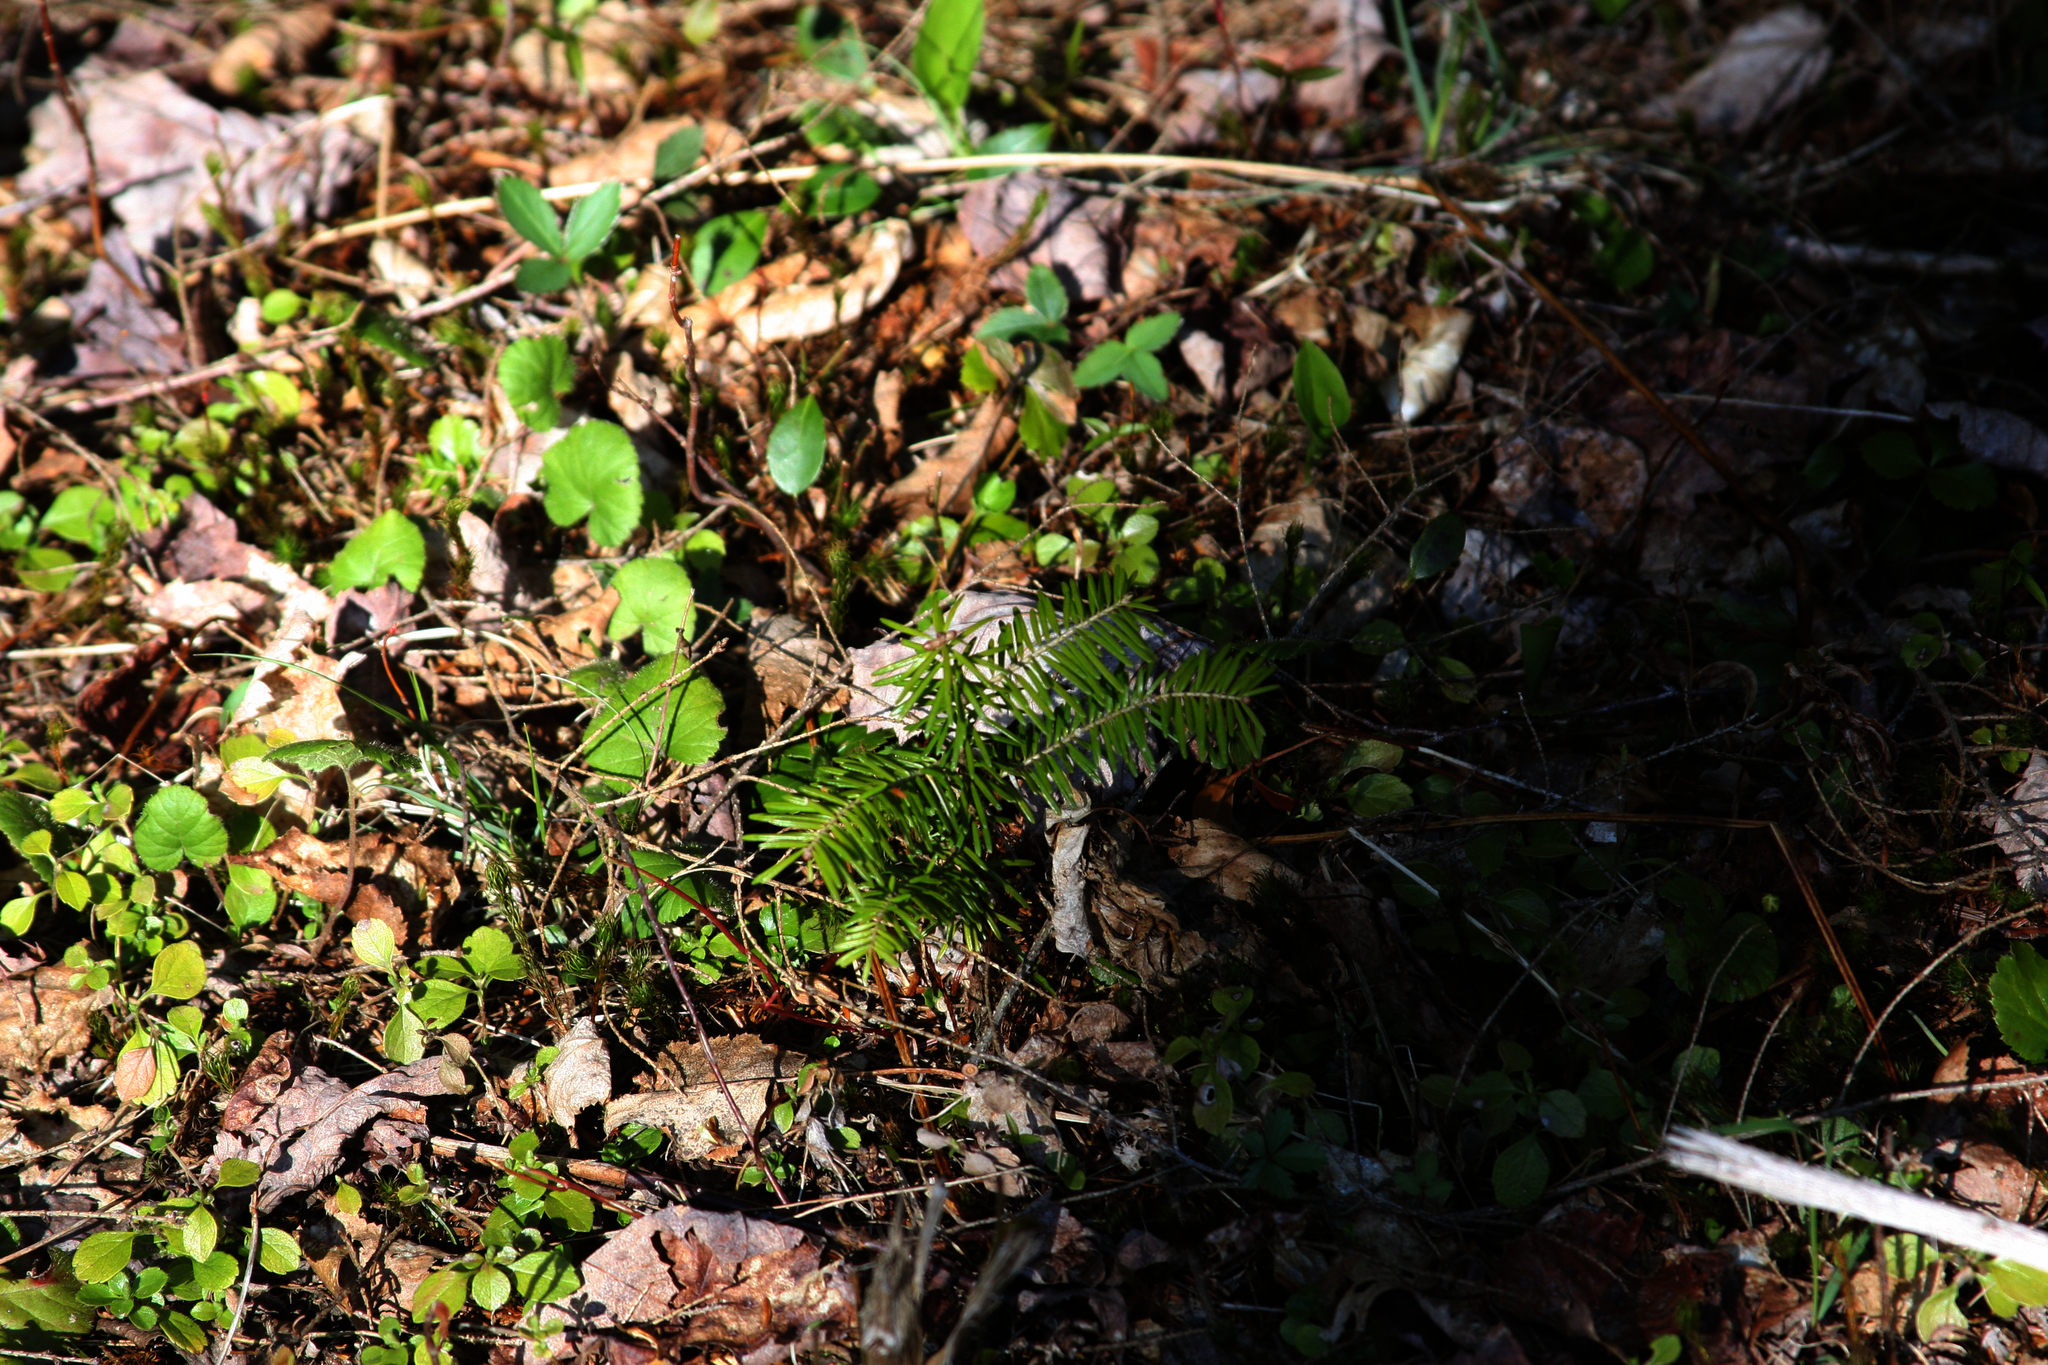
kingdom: Plantae
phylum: Tracheophyta
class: Pinopsida
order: Pinales
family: Pinaceae
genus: Abies
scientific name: Abies balsamea
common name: Balsam fir
